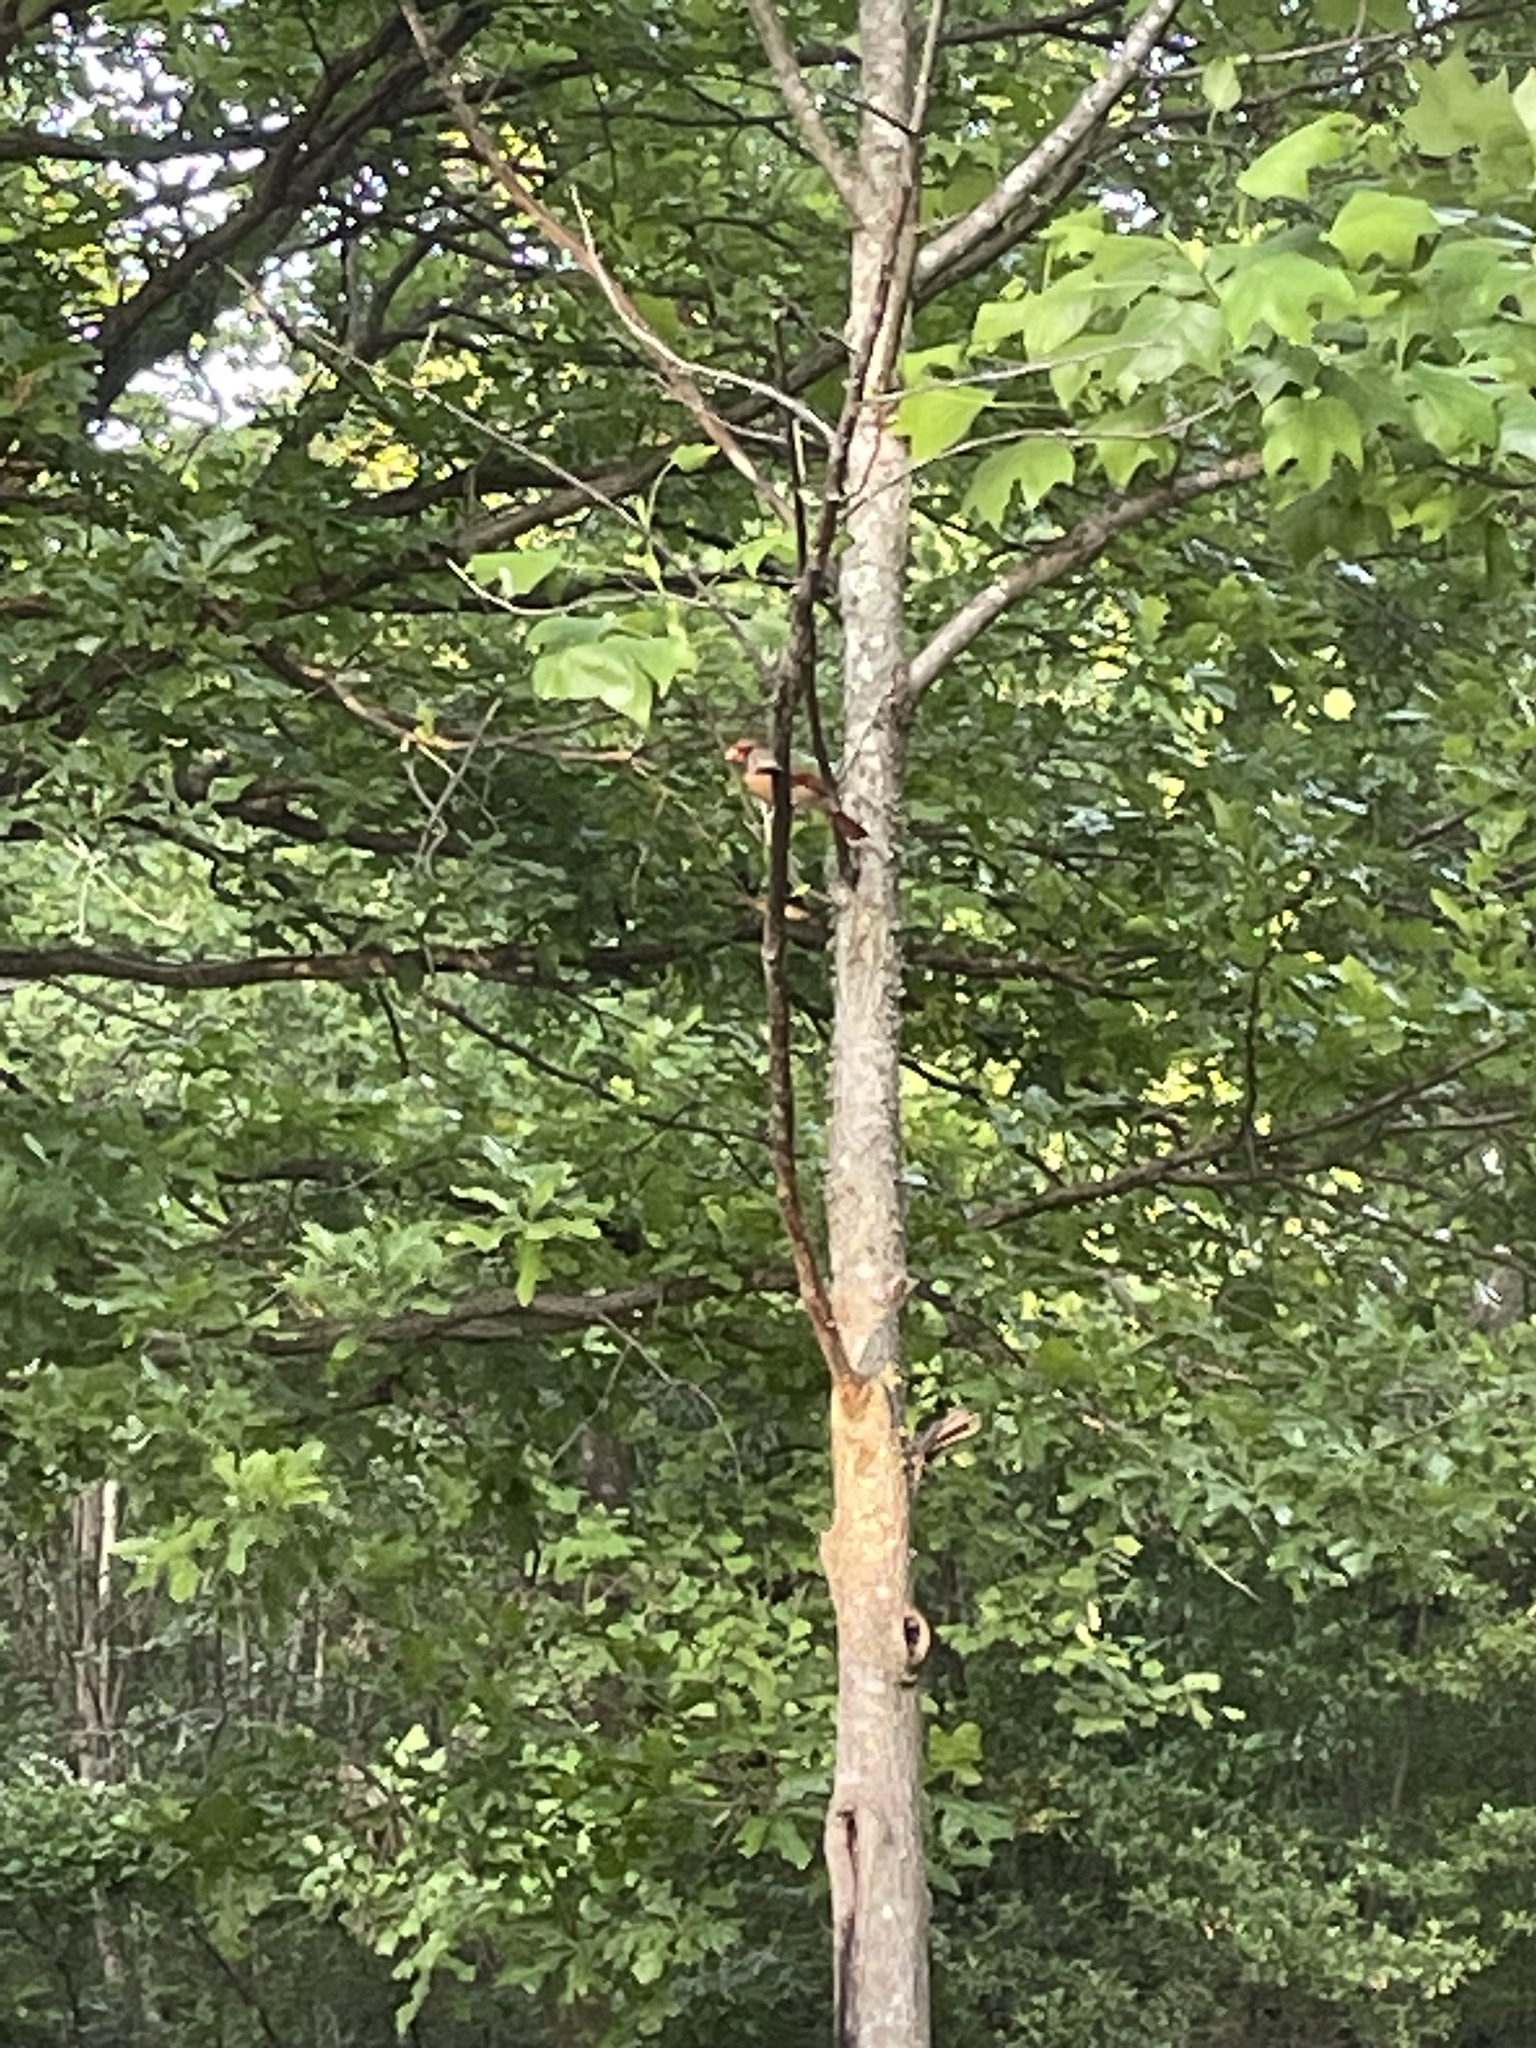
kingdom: Animalia
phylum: Chordata
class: Aves
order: Passeriformes
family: Cardinalidae
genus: Cardinalis
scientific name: Cardinalis cardinalis
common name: Northern cardinal
